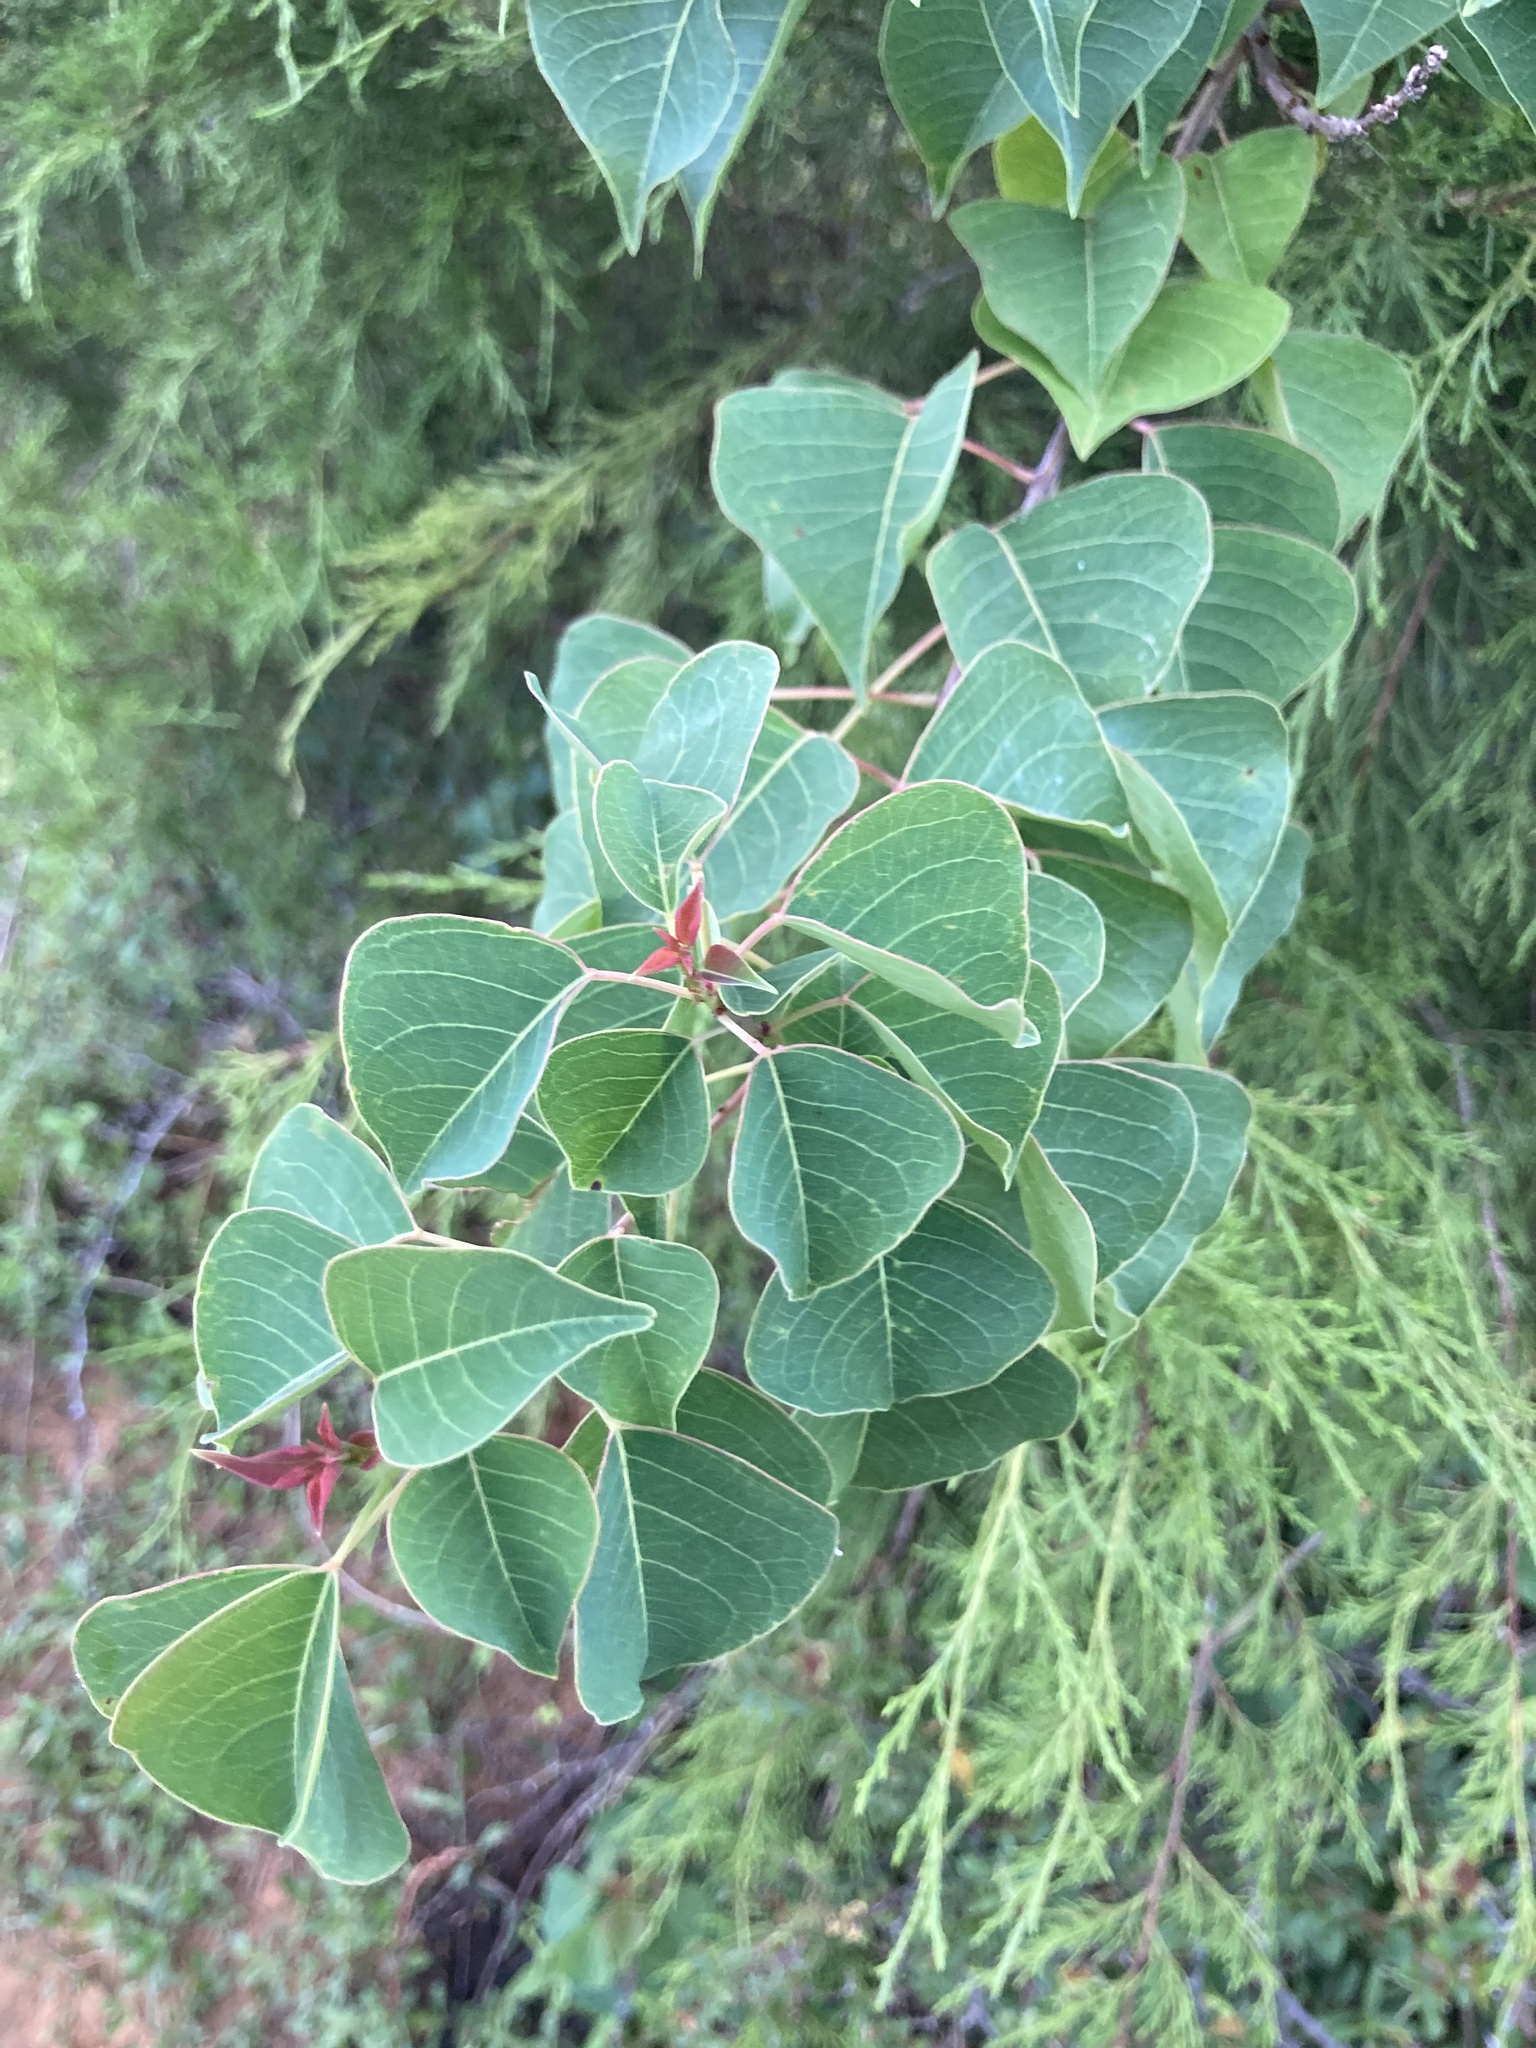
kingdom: Plantae
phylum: Tracheophyta
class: Magnoliopsida
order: Malpighiales
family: Euphorbiaceae
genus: Triadica
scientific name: Triadica sebifera
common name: Chinese tallow
